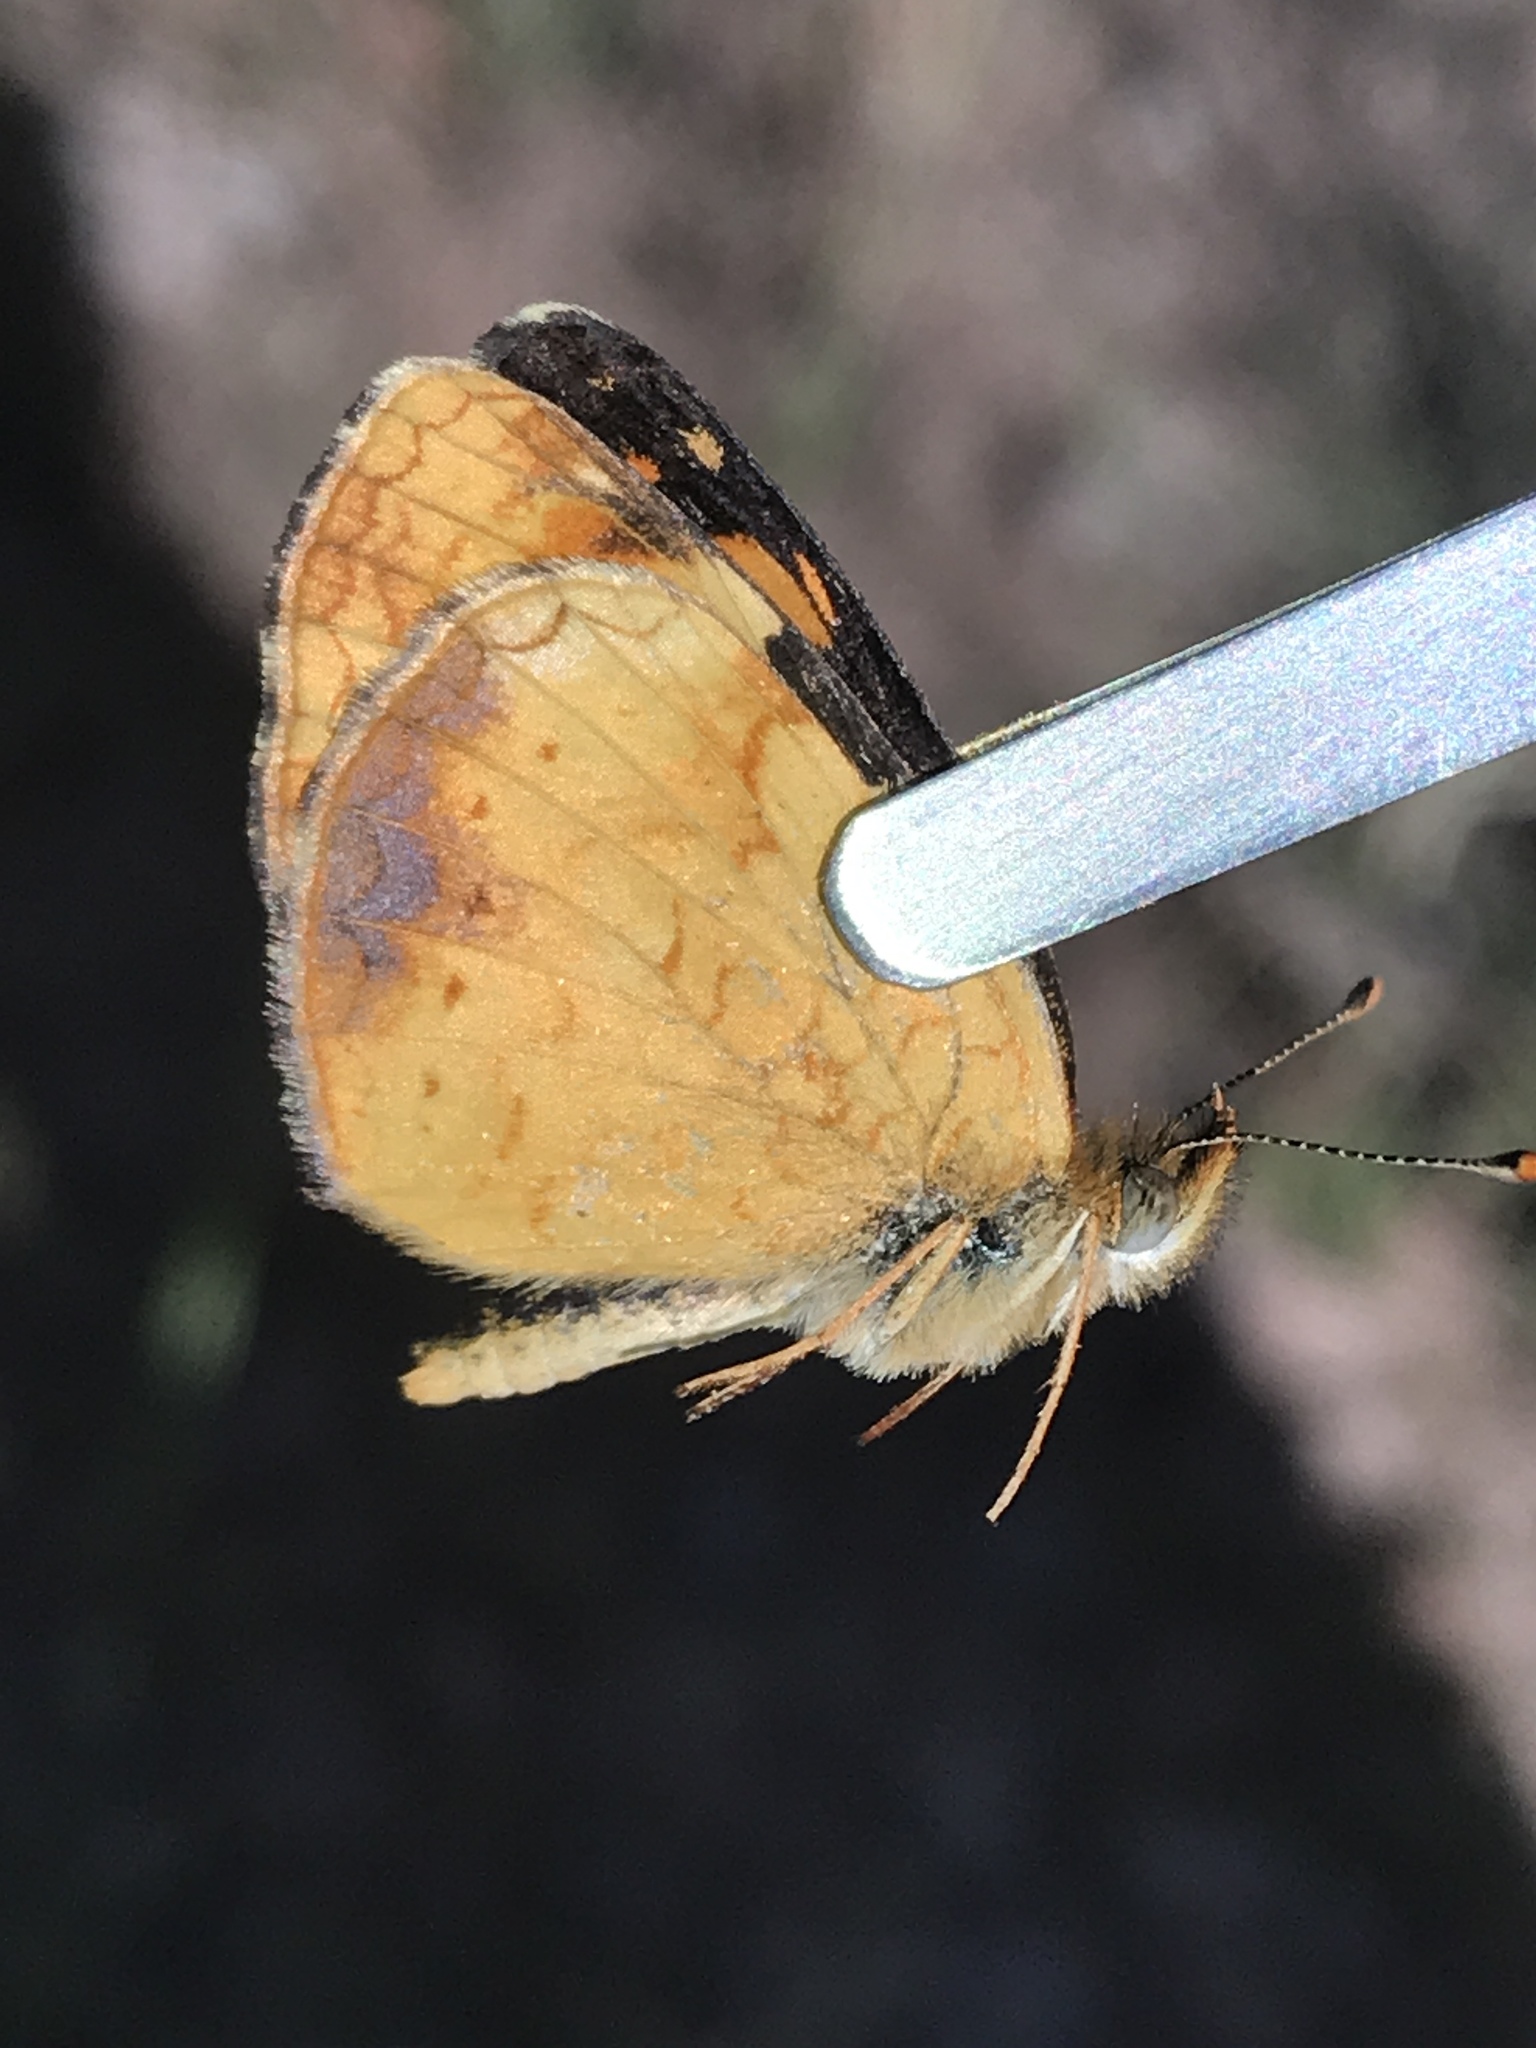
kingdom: Animalia
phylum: Arthropoda
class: Insecta
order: Lepidoptera
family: Nymphalidae
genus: Phyciodes
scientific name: Phyciodes tharos
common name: Pearl crescent
